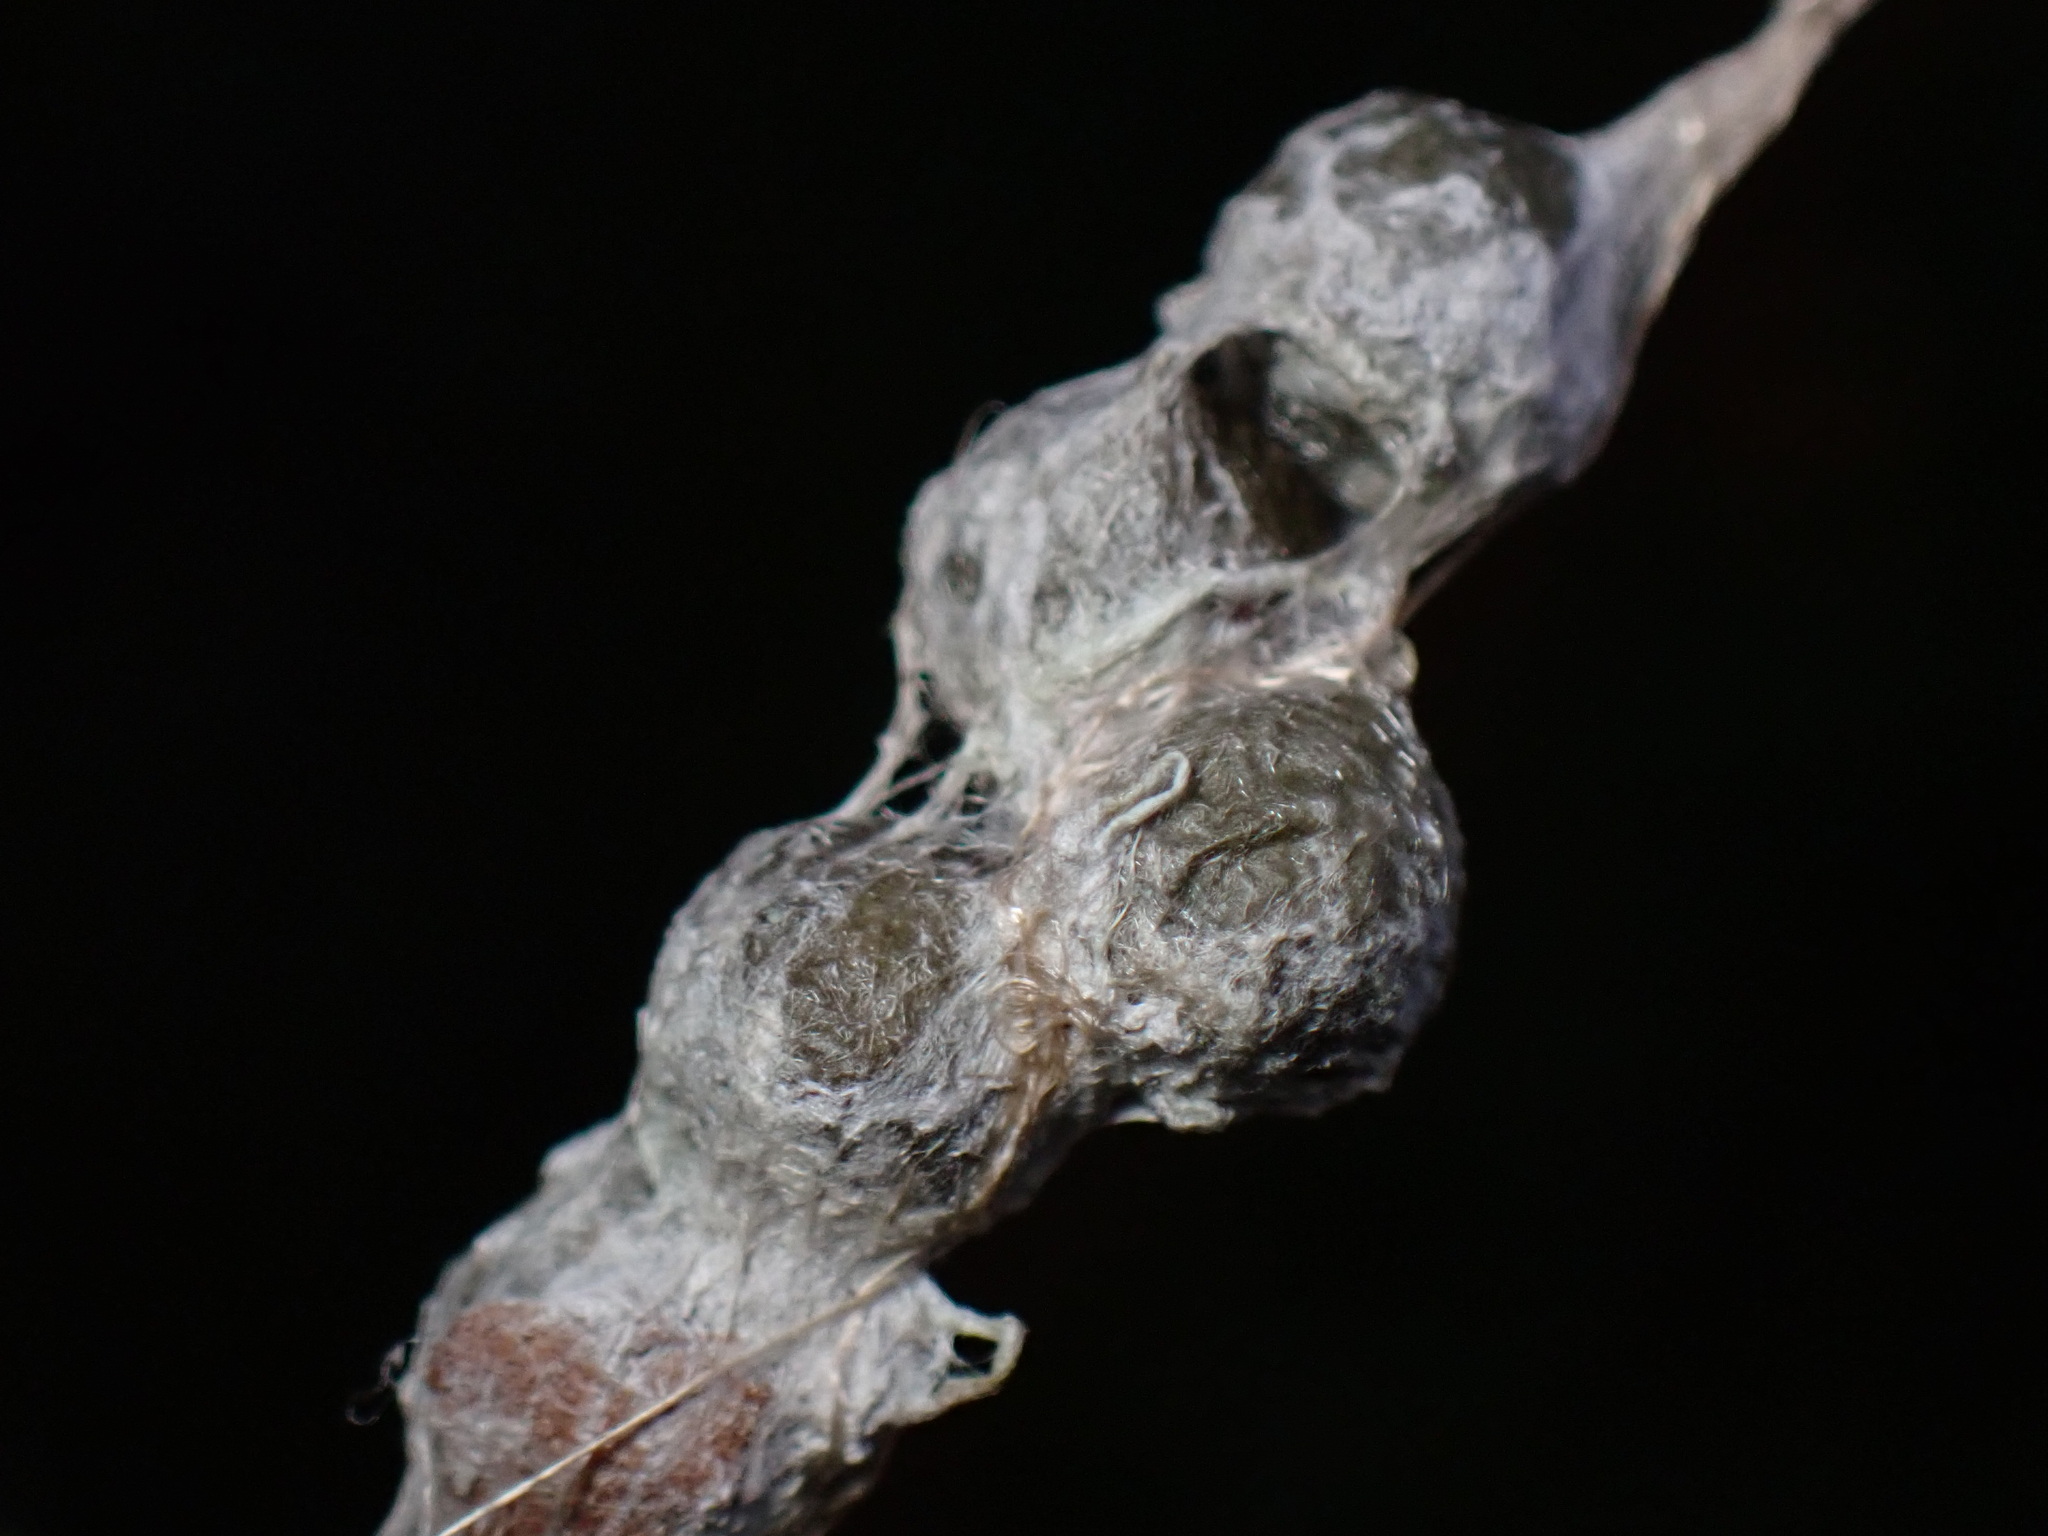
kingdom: Animalia
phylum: Arthropoda
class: Arachnida
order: Araneae
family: Araneidae
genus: Mecynogea
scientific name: Mecynogea lemniscata
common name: Orb weavers
